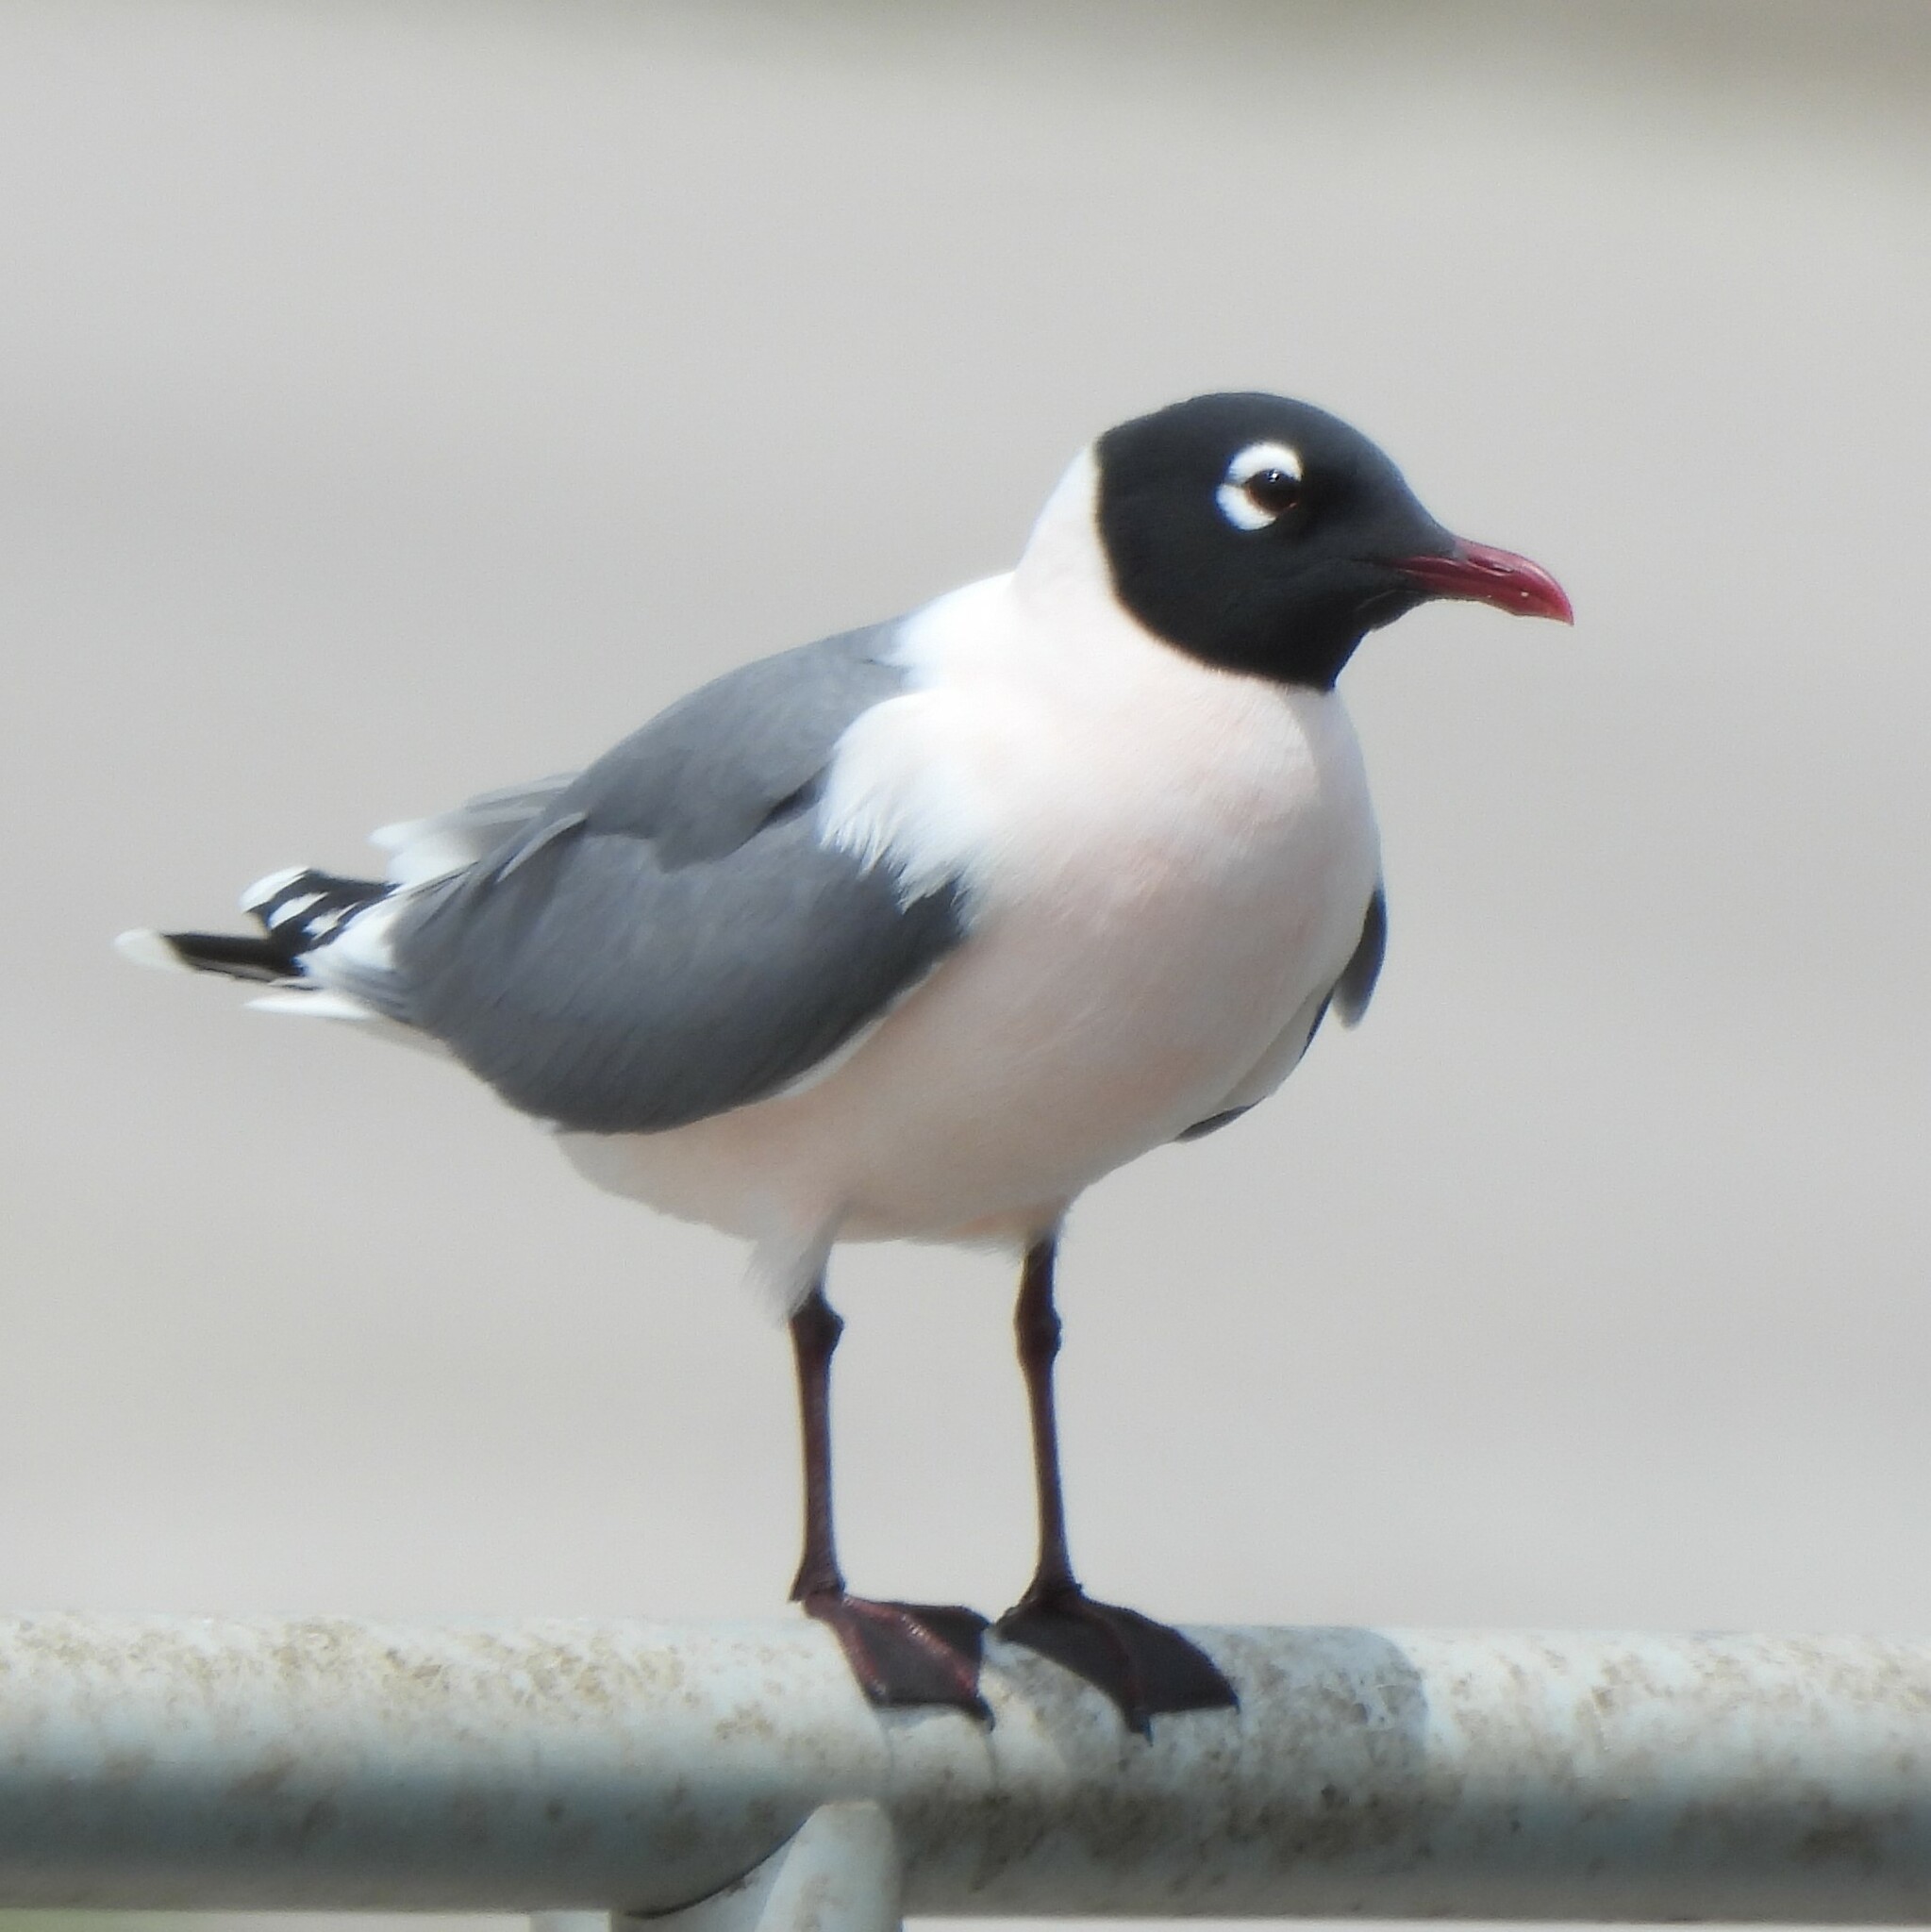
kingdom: Animalia
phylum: Chordata
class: Aves
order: Charadriiformes
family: Laridae
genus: Leucophaeus
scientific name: Leucophaeus pipixcan
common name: Franklin's gull
